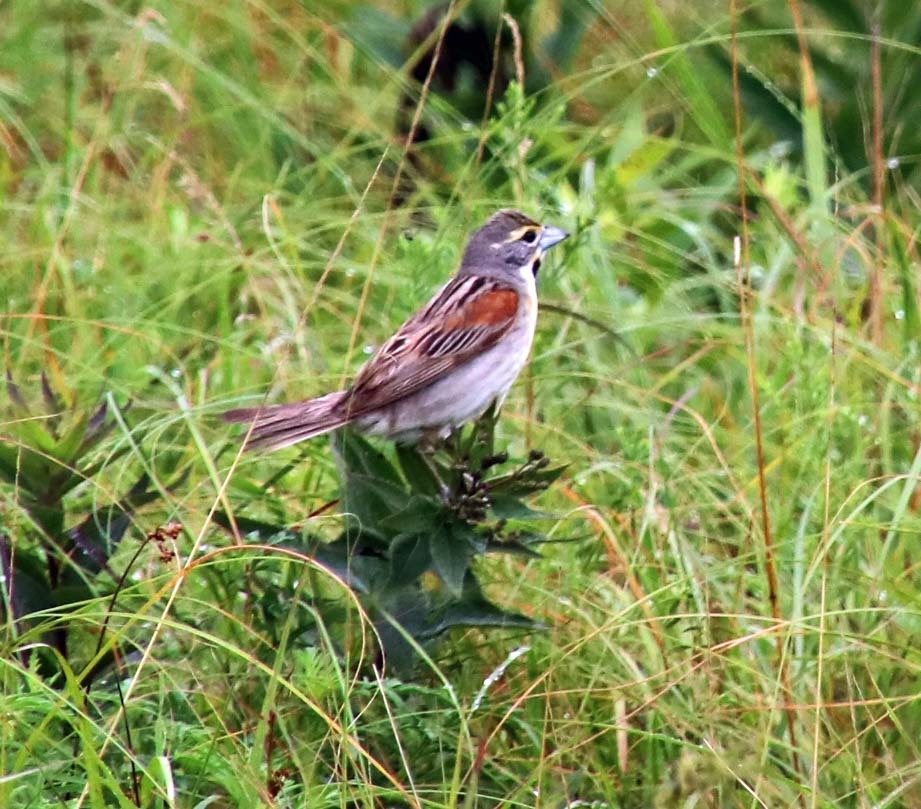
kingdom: Animalia
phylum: Chordata
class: Aves
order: Passeriformes
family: Cardinalidae
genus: Spiza
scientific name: Spiza americana
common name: Dickcissel
